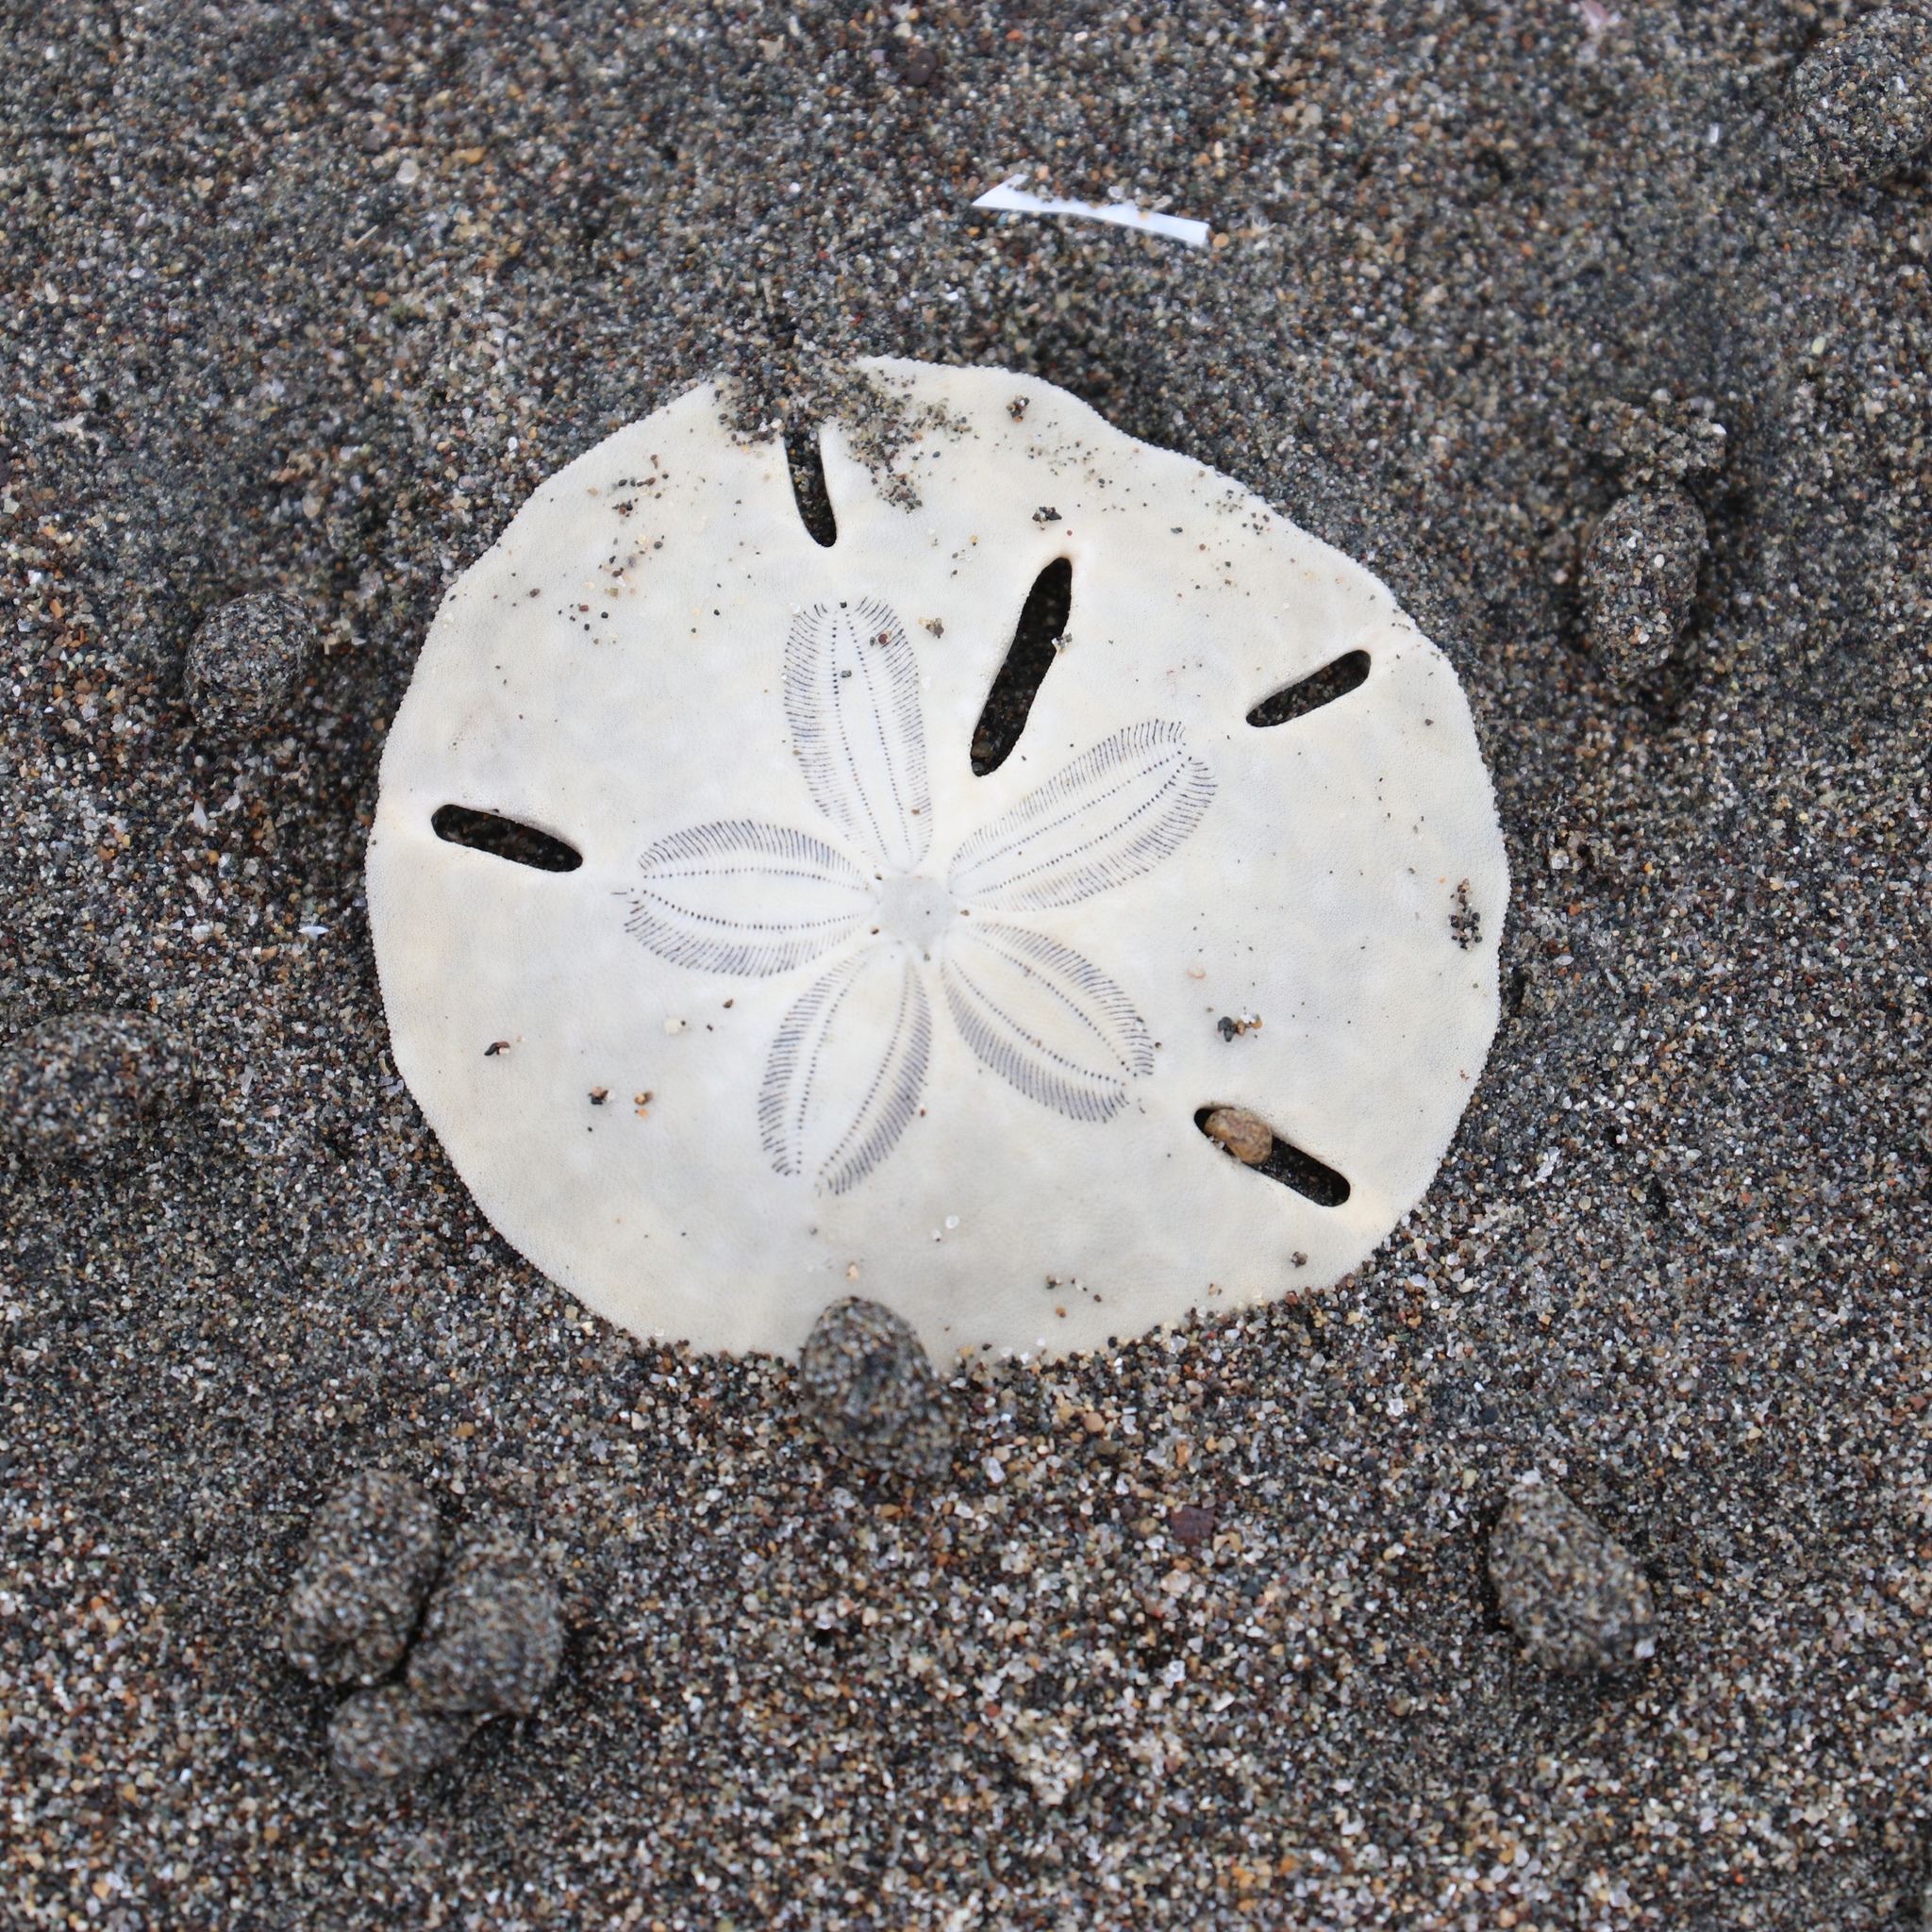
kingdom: Animalia
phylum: Echinodermata
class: Echinoidea
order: Echinolampadacea
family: Mellitidae
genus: Mellita
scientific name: Mellita quinquiesperforata
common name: Sand dollar
